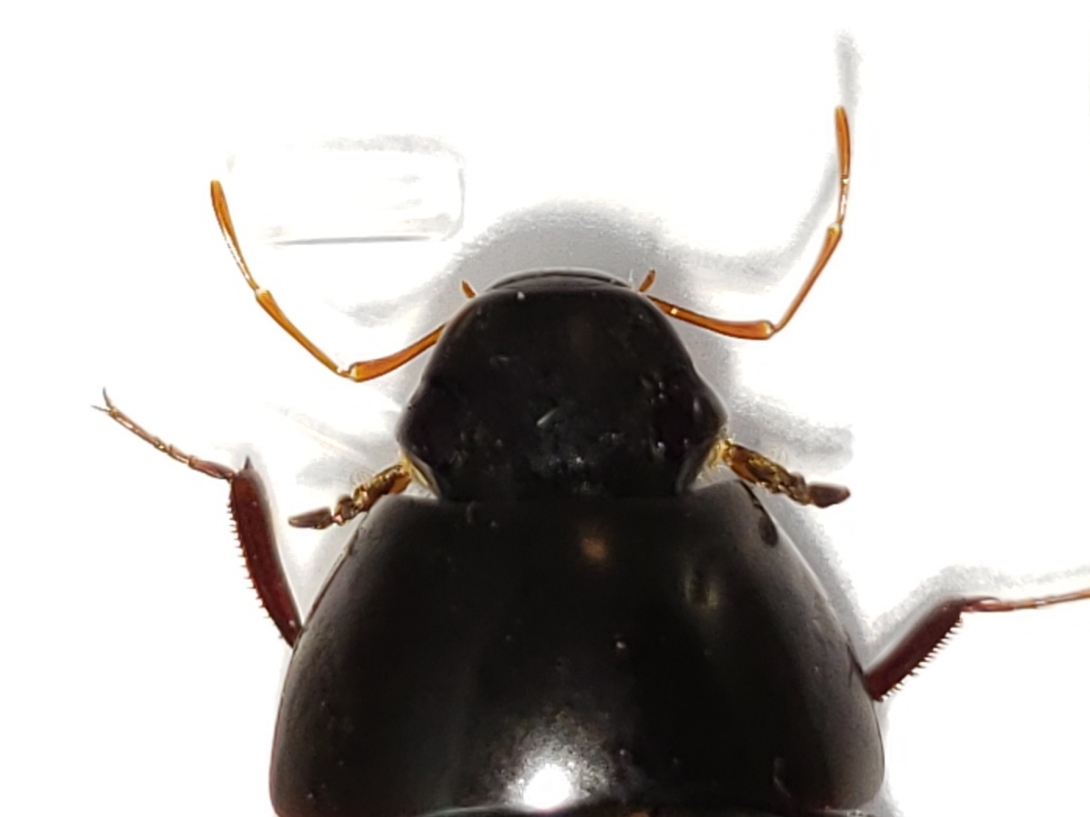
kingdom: Animalia
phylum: Arthropoda
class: Insecta
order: Coleoptera
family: Hydrophilidae
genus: Hydrobiomorpha
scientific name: Hydrobiomorpha casta
